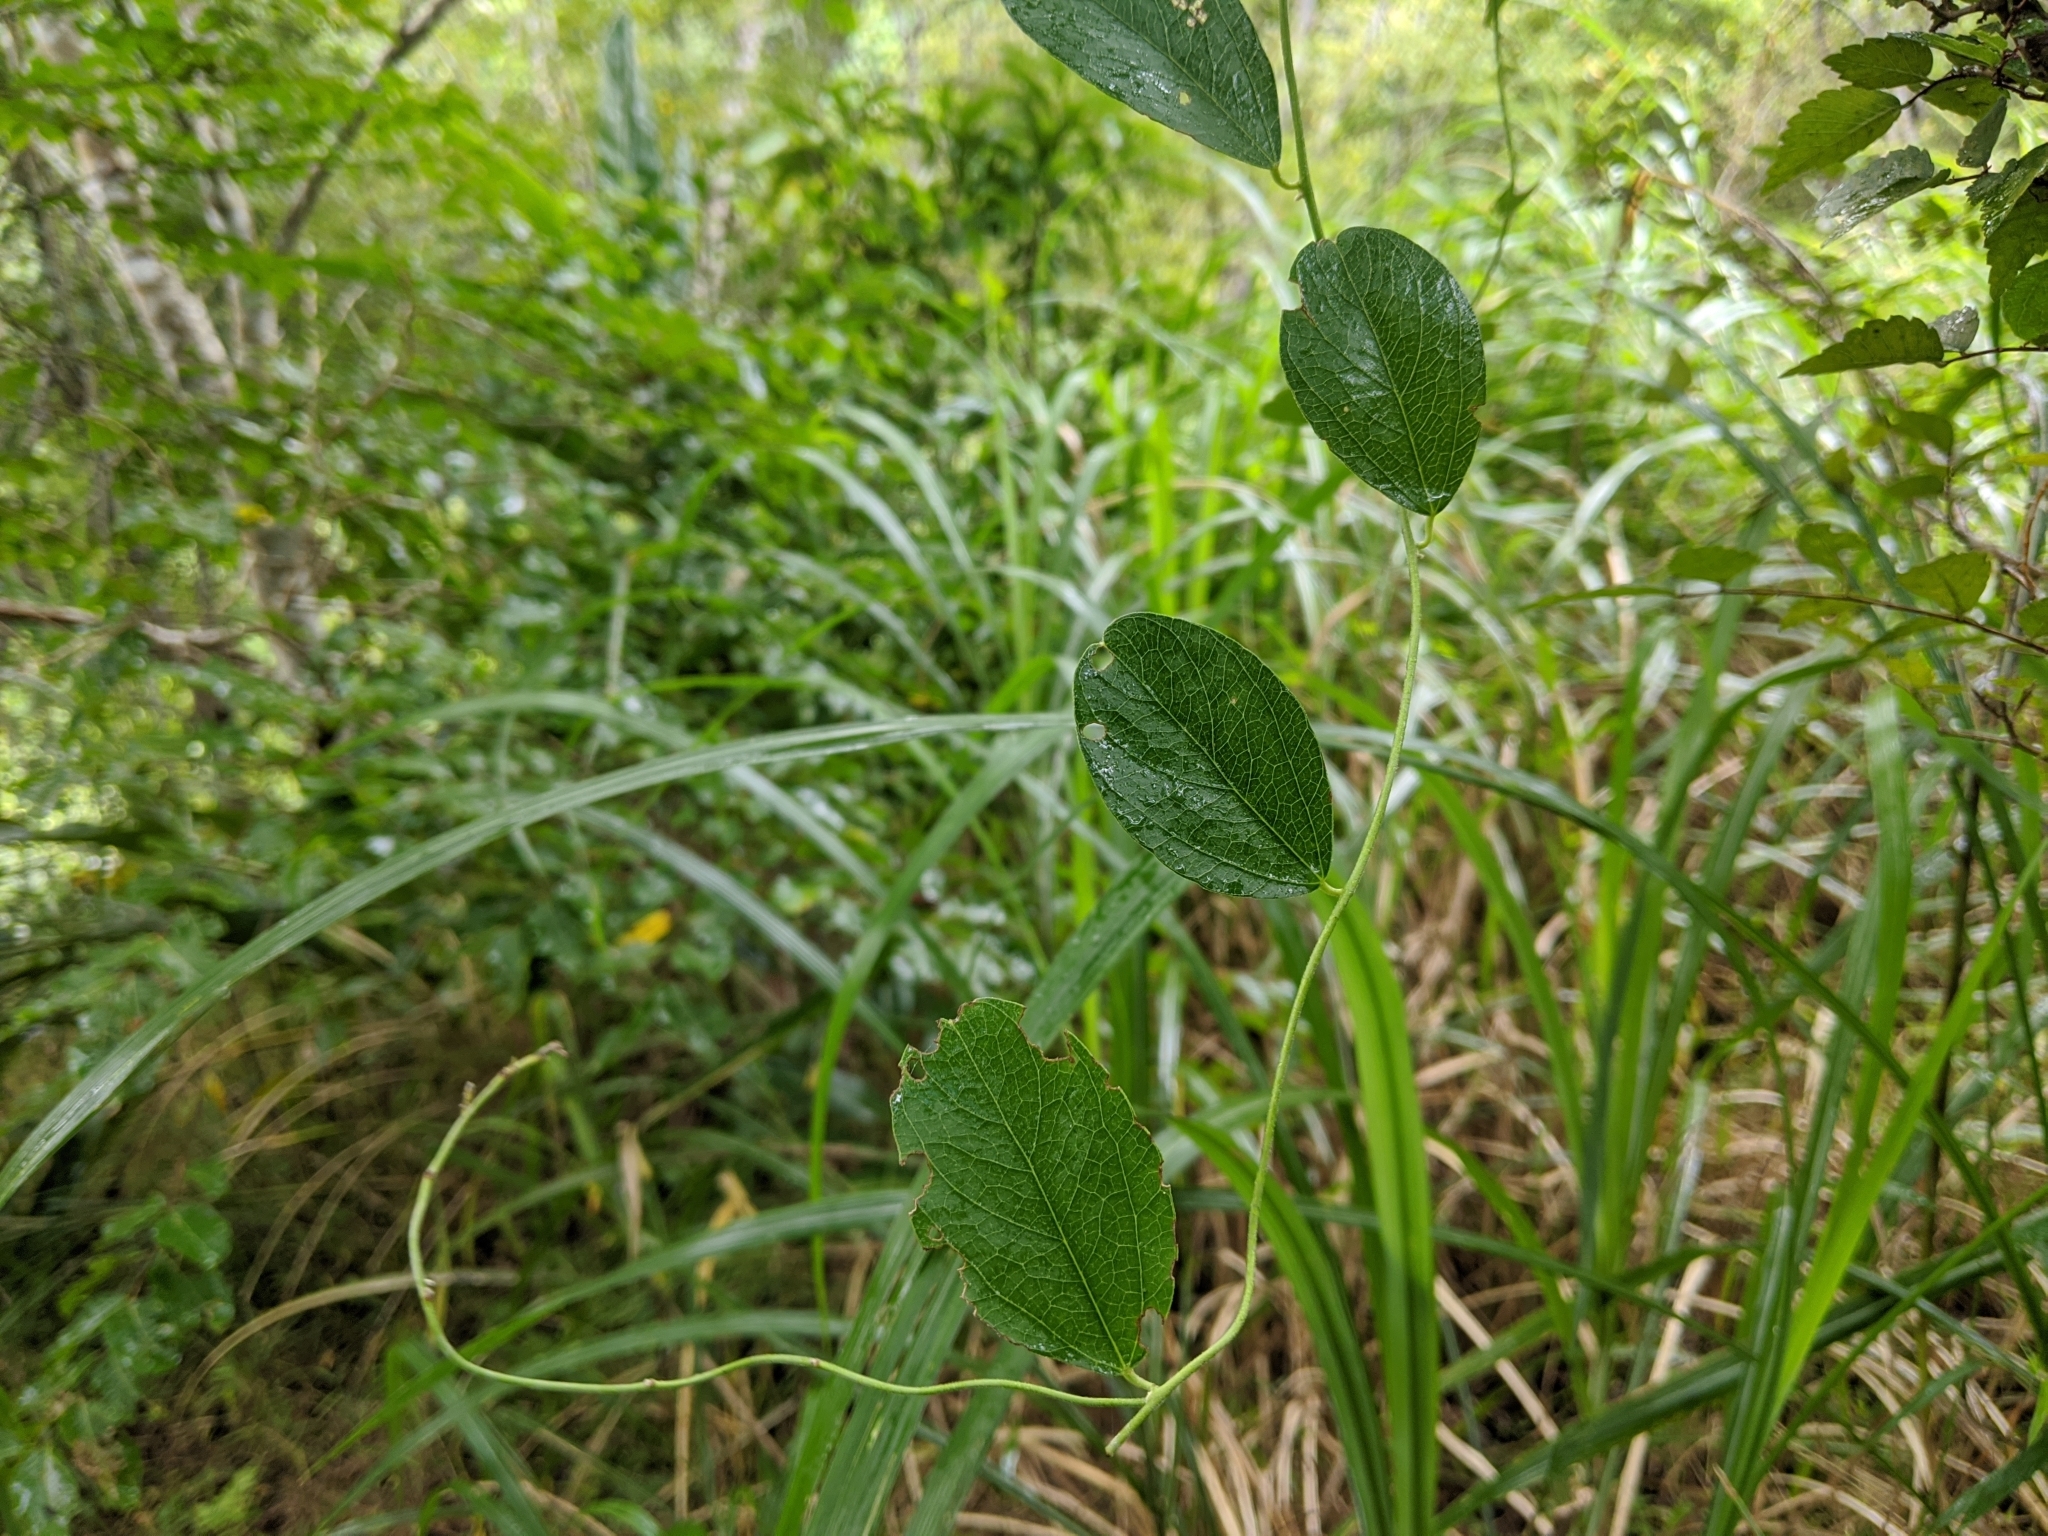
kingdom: Plantae
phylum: Tracheophyta
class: Magnoliopsida
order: Ranunculales
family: Menispermaceae
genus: Cocculus
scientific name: Cocculus orbiculatus
